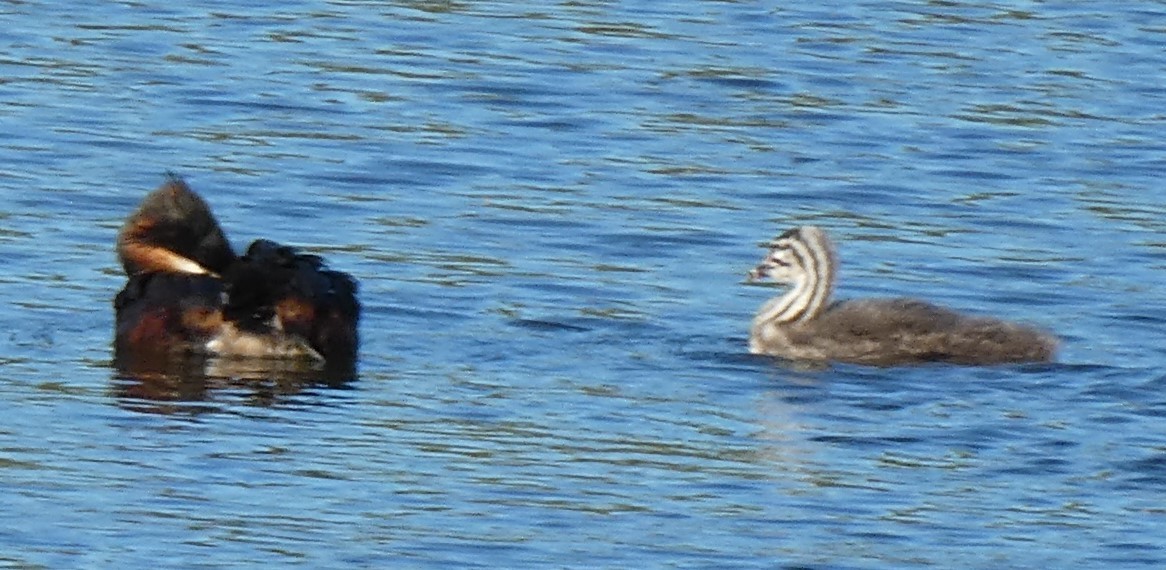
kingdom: Animalia
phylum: Chordata
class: Aves
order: Podicipediformes
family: Podicipedidae
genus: Podiceps
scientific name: Podiceps cristatus
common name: Great crested grebe
